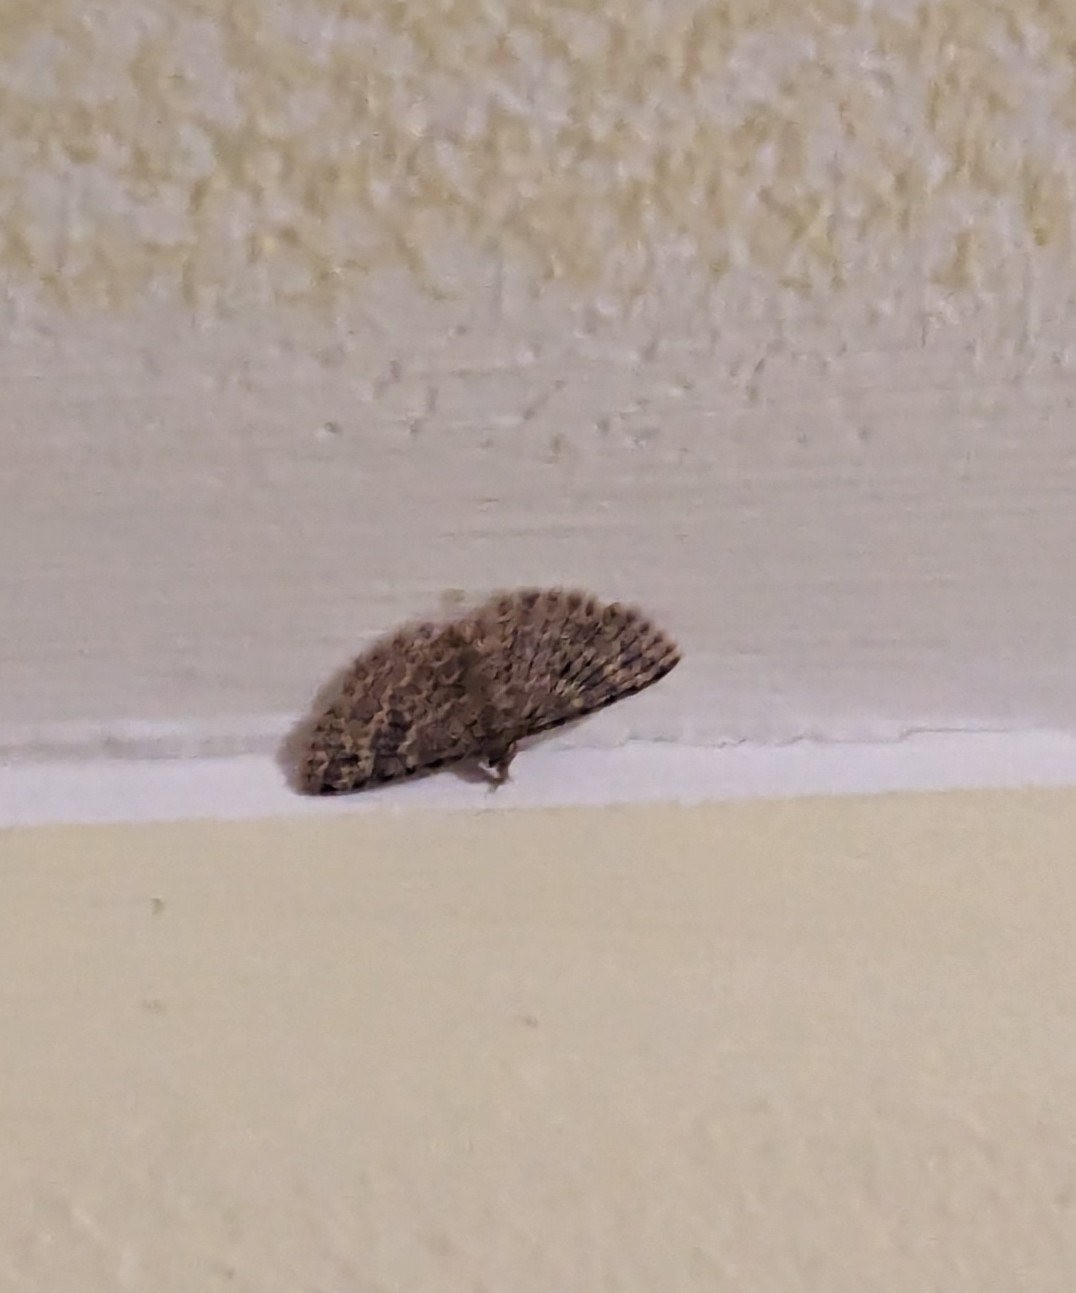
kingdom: Animalia
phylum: Arthropoda
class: Insecta
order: Lepidoptera
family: Alucitidae
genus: Alucita
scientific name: Alucita hexadactyla
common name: Twenty-plume moth
